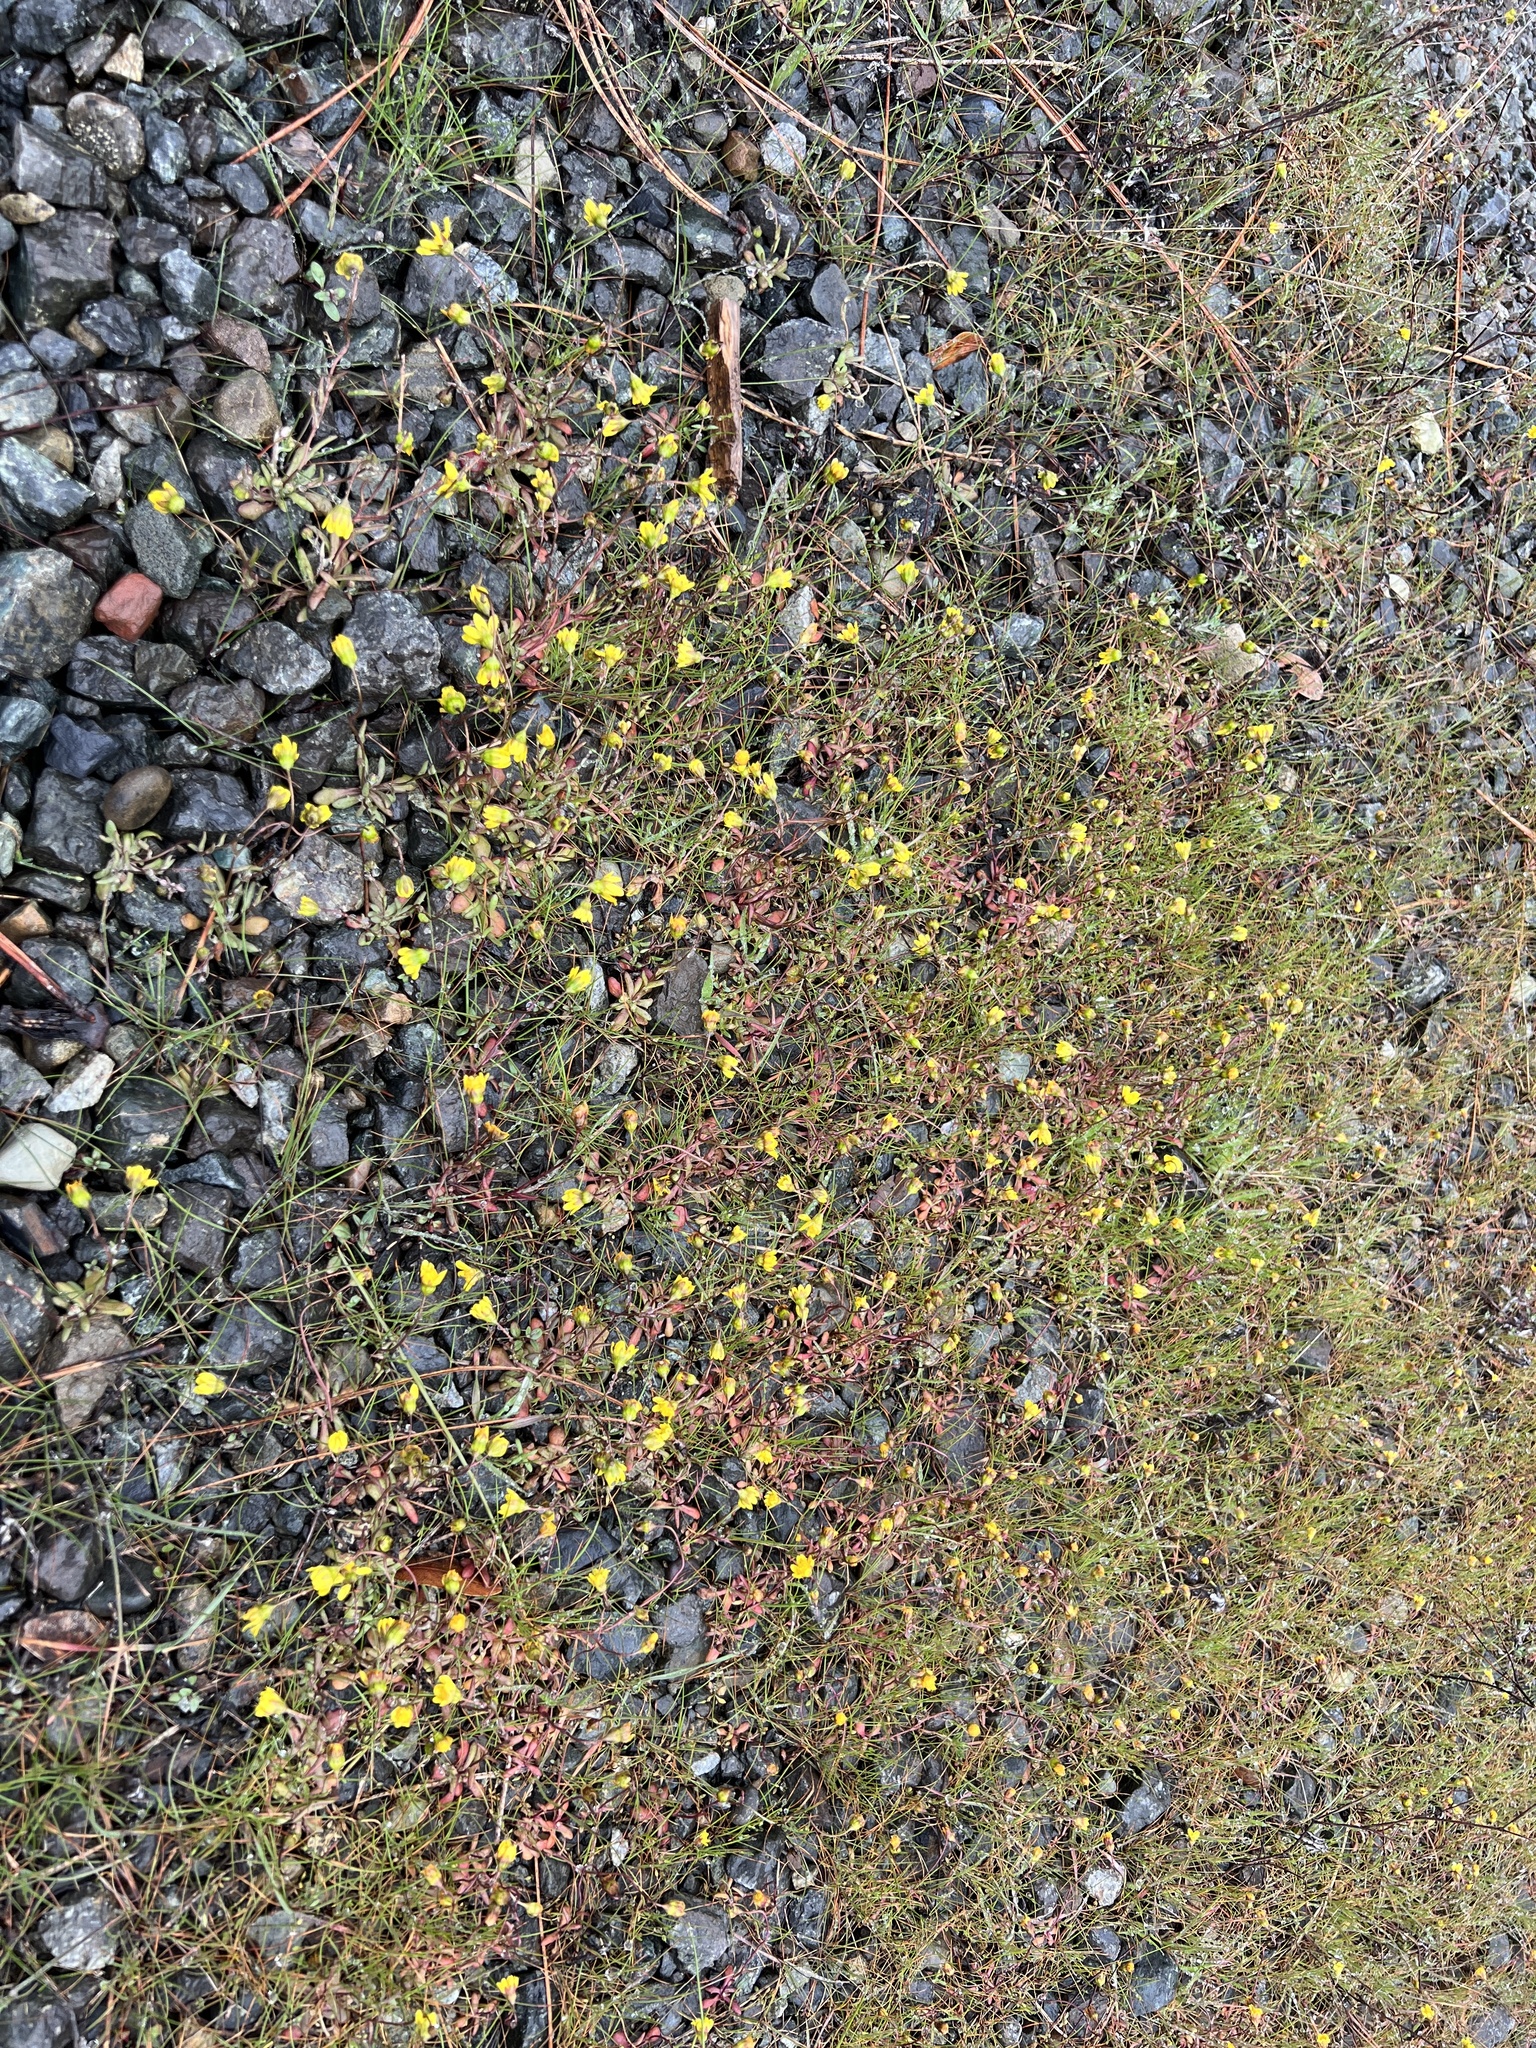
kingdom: Plantae
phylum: Tracheophyta
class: Magnoliopsida
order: Asterales
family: Asteraceae
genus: Crocidium
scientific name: Crocidium multicaule
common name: Common spring gold
